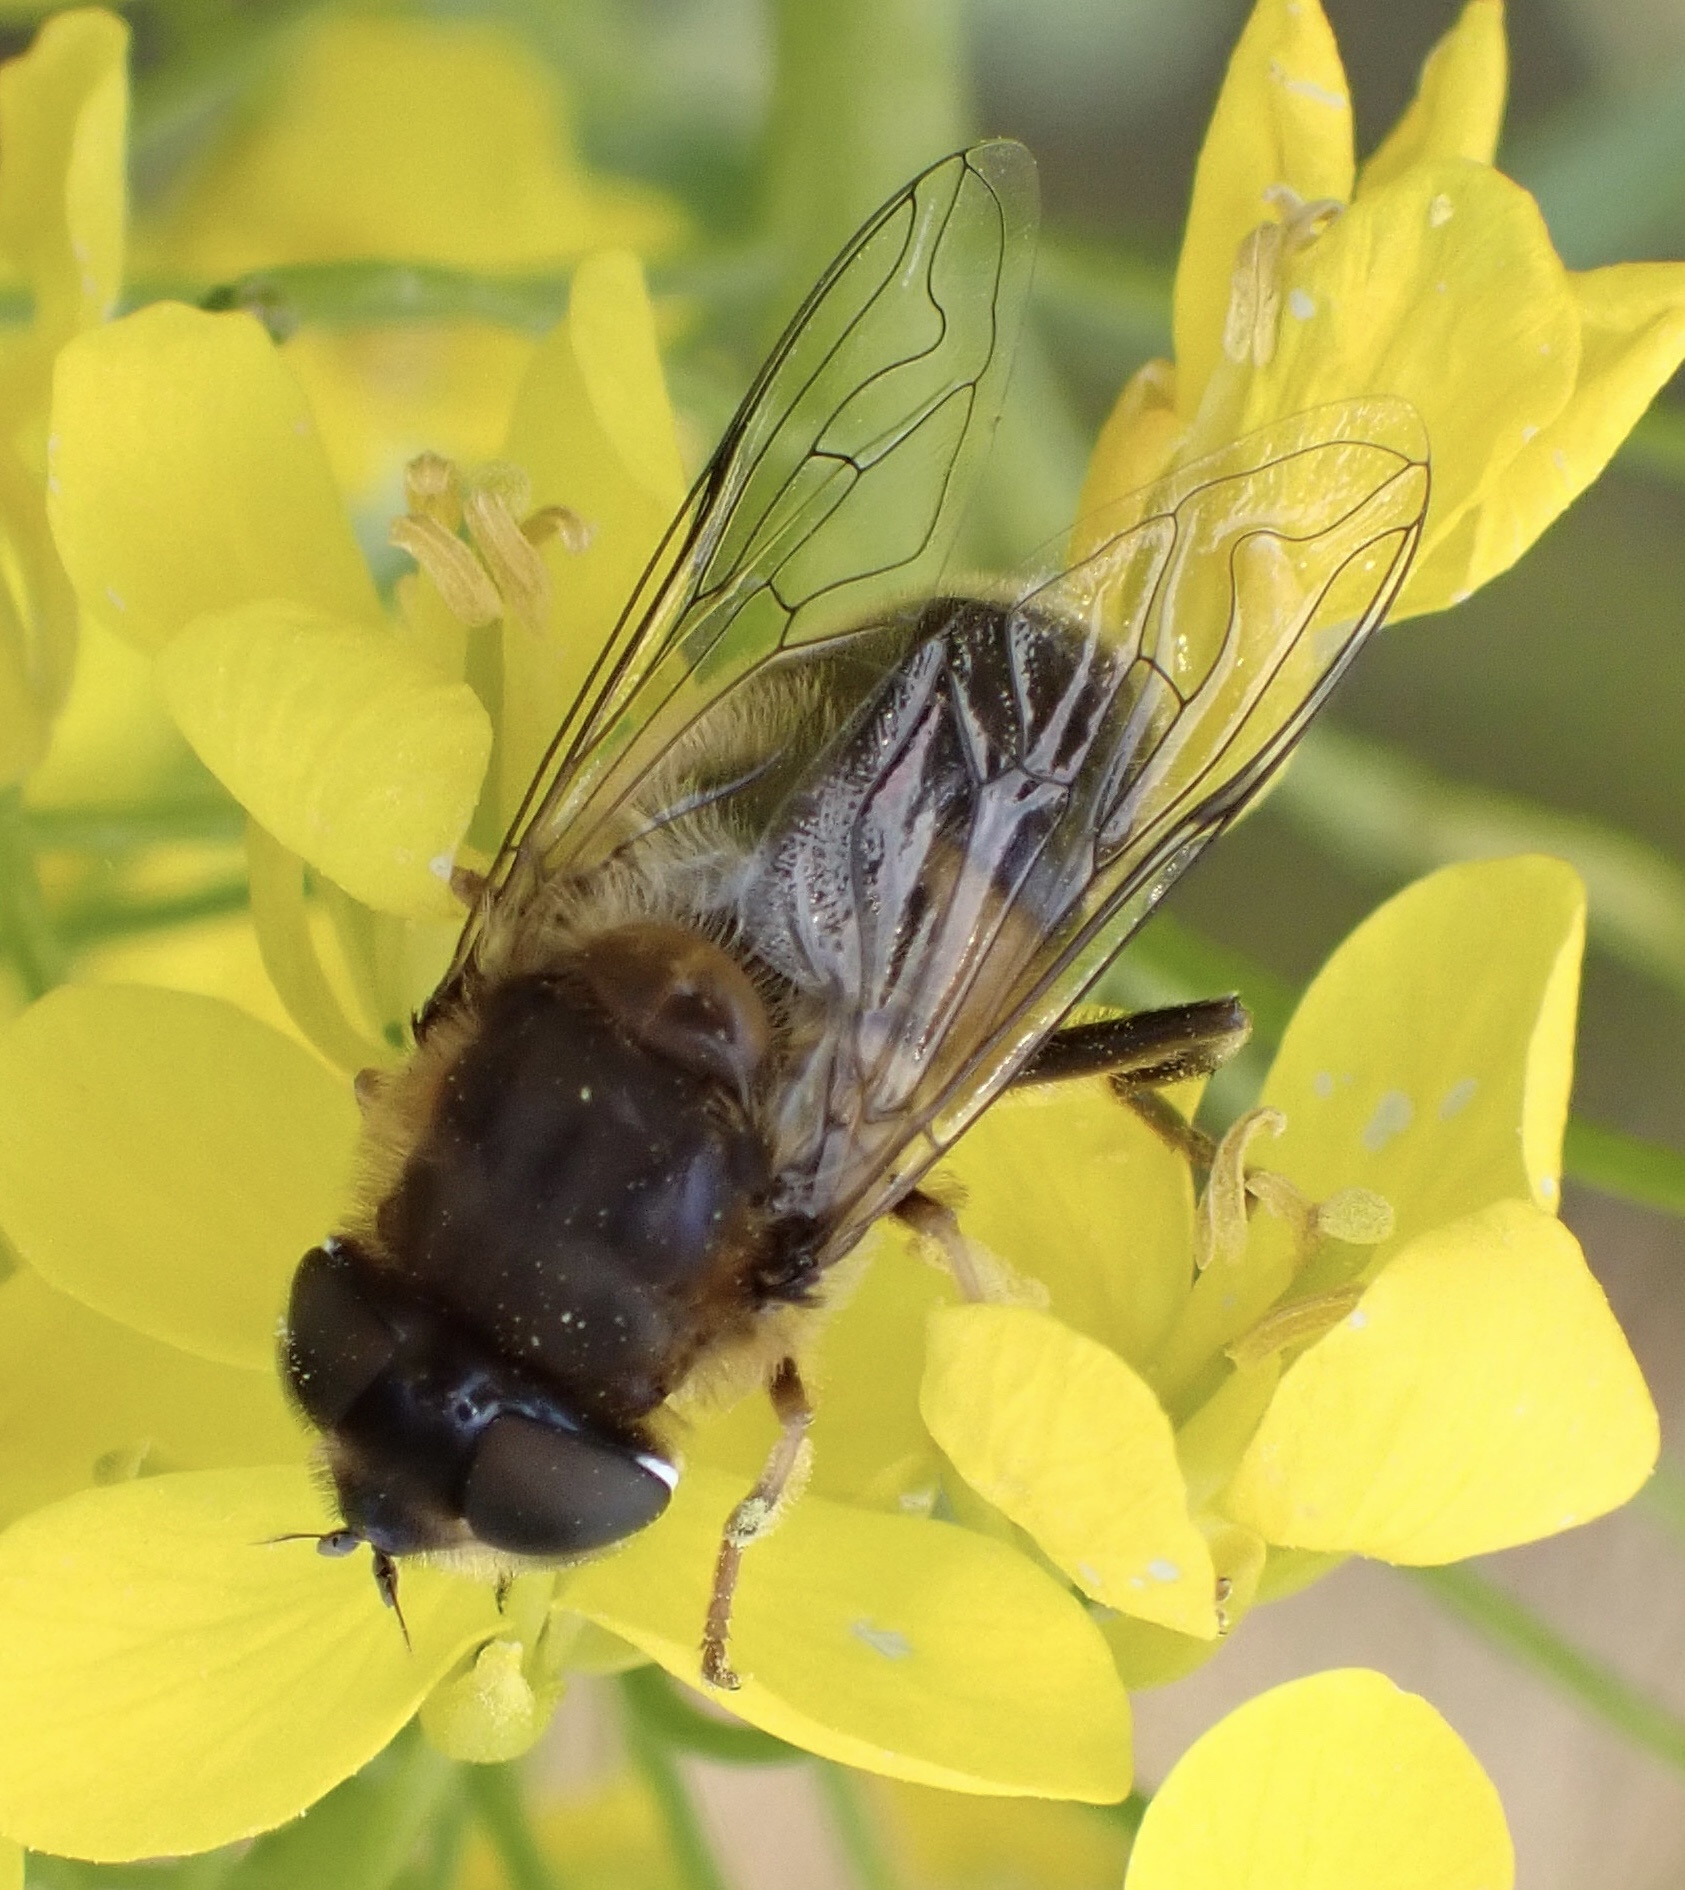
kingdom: Animalia
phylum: Arthropoda
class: Insecta
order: Diptera
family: Syrphidae
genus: Eristalis
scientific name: Eristalis pertinax
